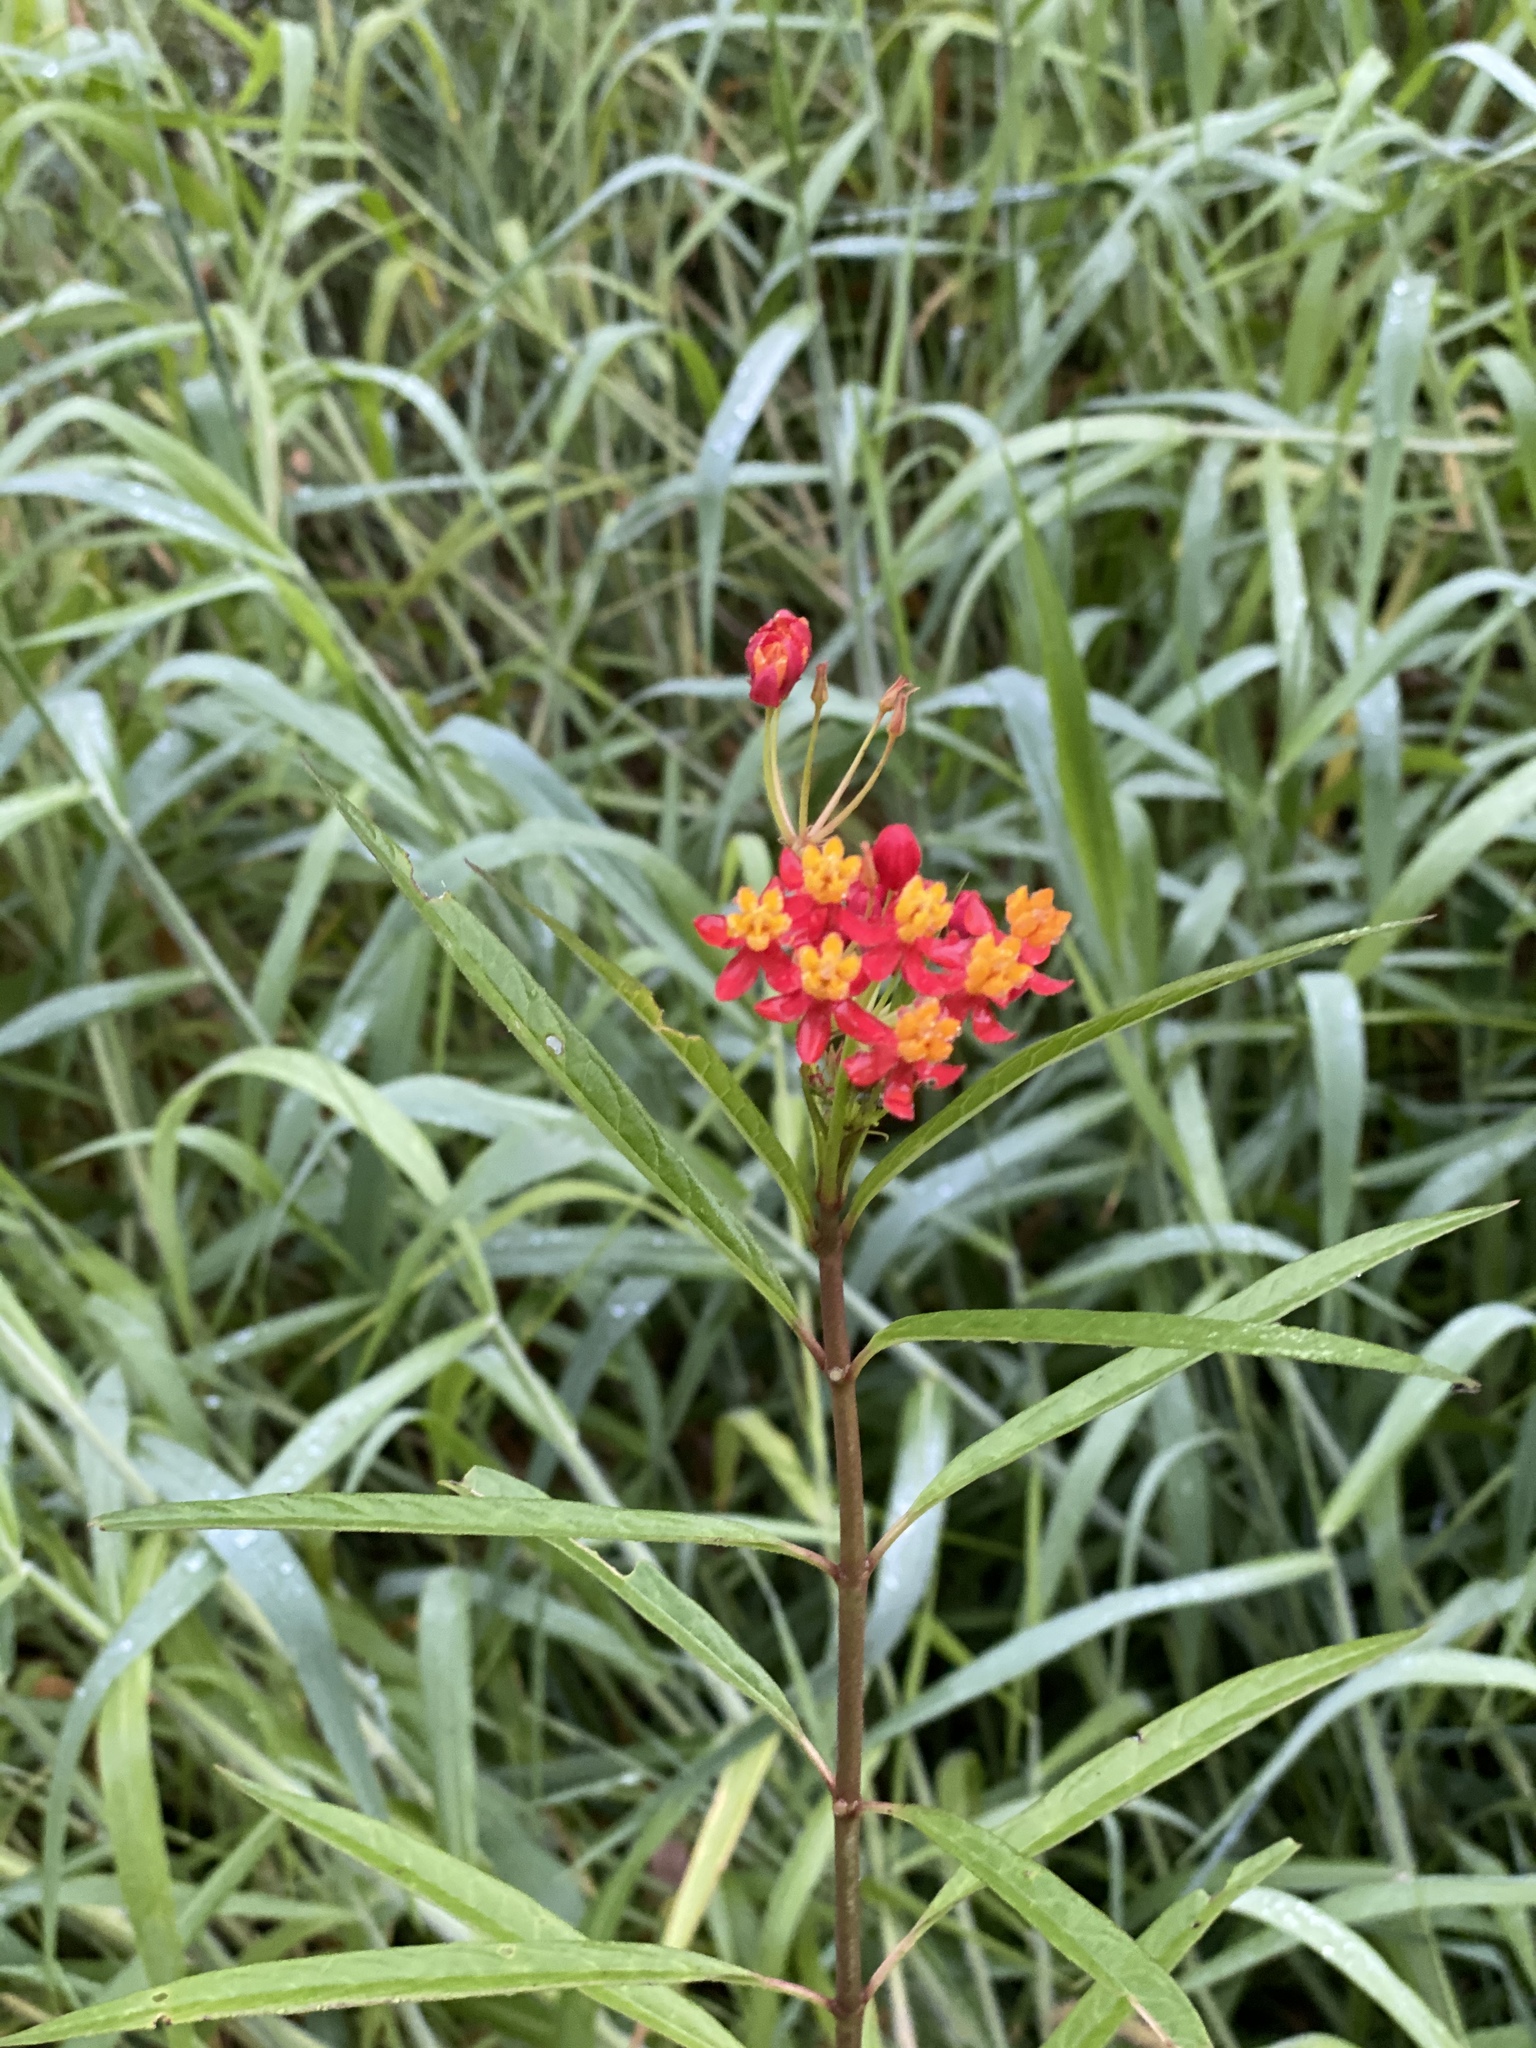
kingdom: Plantae
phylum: Tracheophyta
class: Magnoliopsida
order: Gentianales
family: Apocynaceae
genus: Asclepias
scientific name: Asclepias curassavica
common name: Bloodflower
